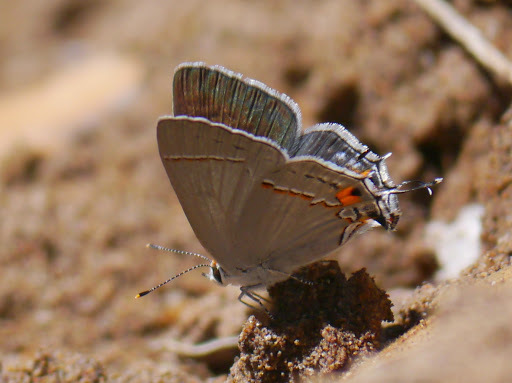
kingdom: Animalia
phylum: Arthropoda
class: Insecta
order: Lepidoptera
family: Lycaenidae
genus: Strymon
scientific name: Strymon melinus
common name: Gray hairstreak
